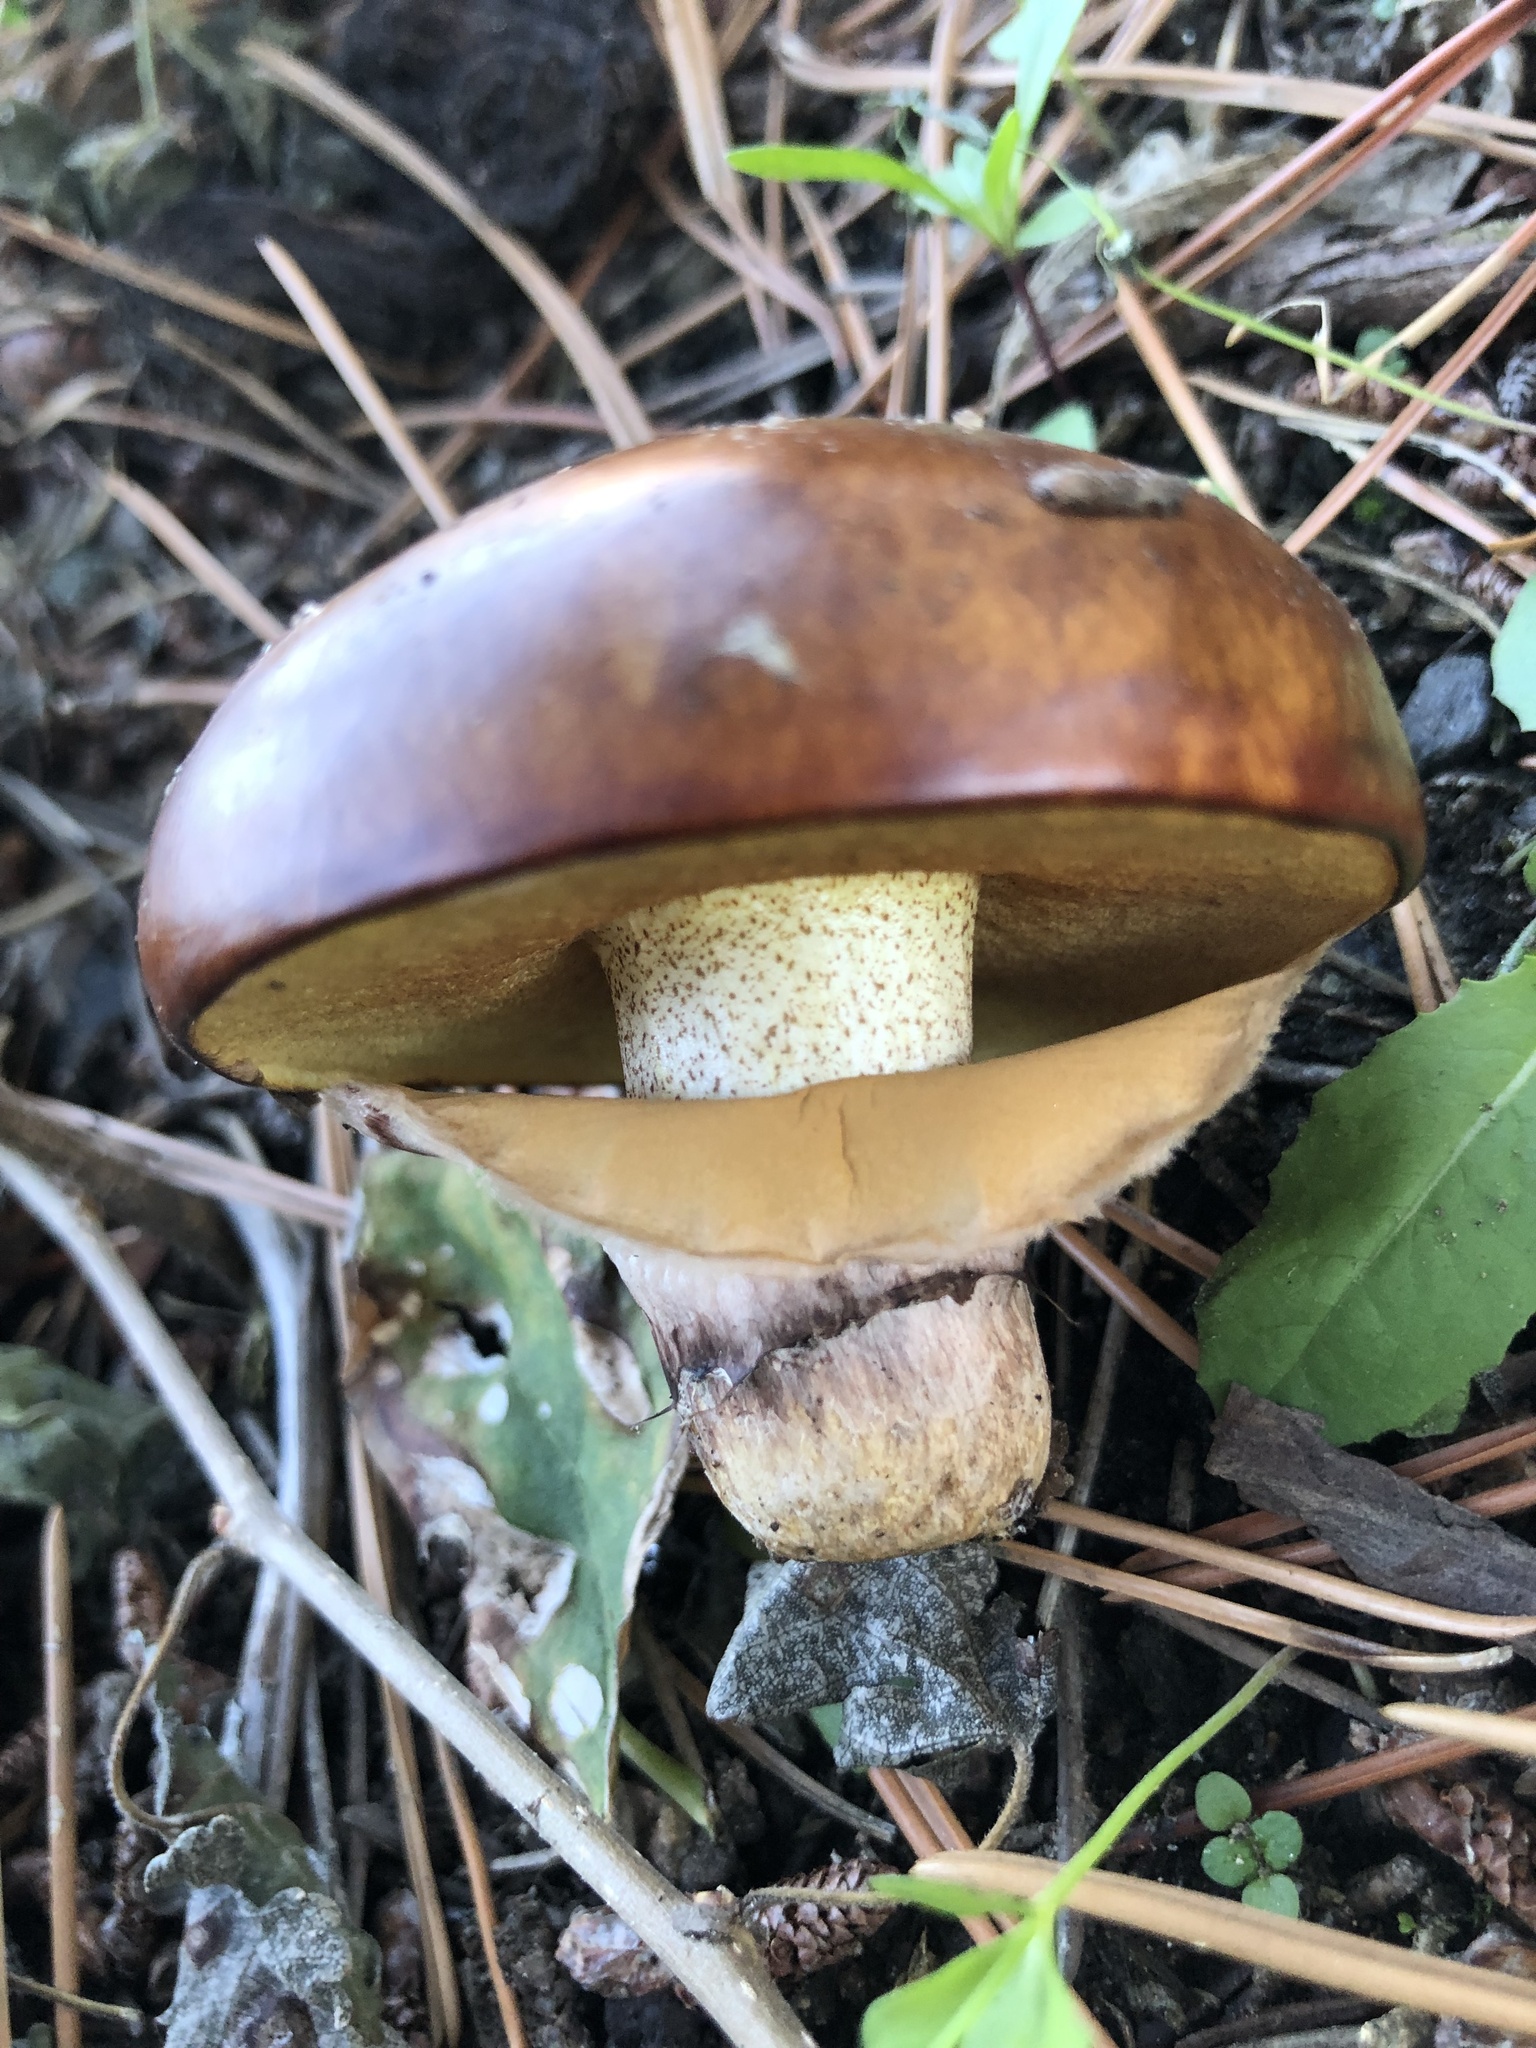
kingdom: Fungi
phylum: Basidiomycota
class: Agaricomycetes
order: Boletales
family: Suillaceae
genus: Suillus
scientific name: Suillus luteus
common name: Slippery jack
